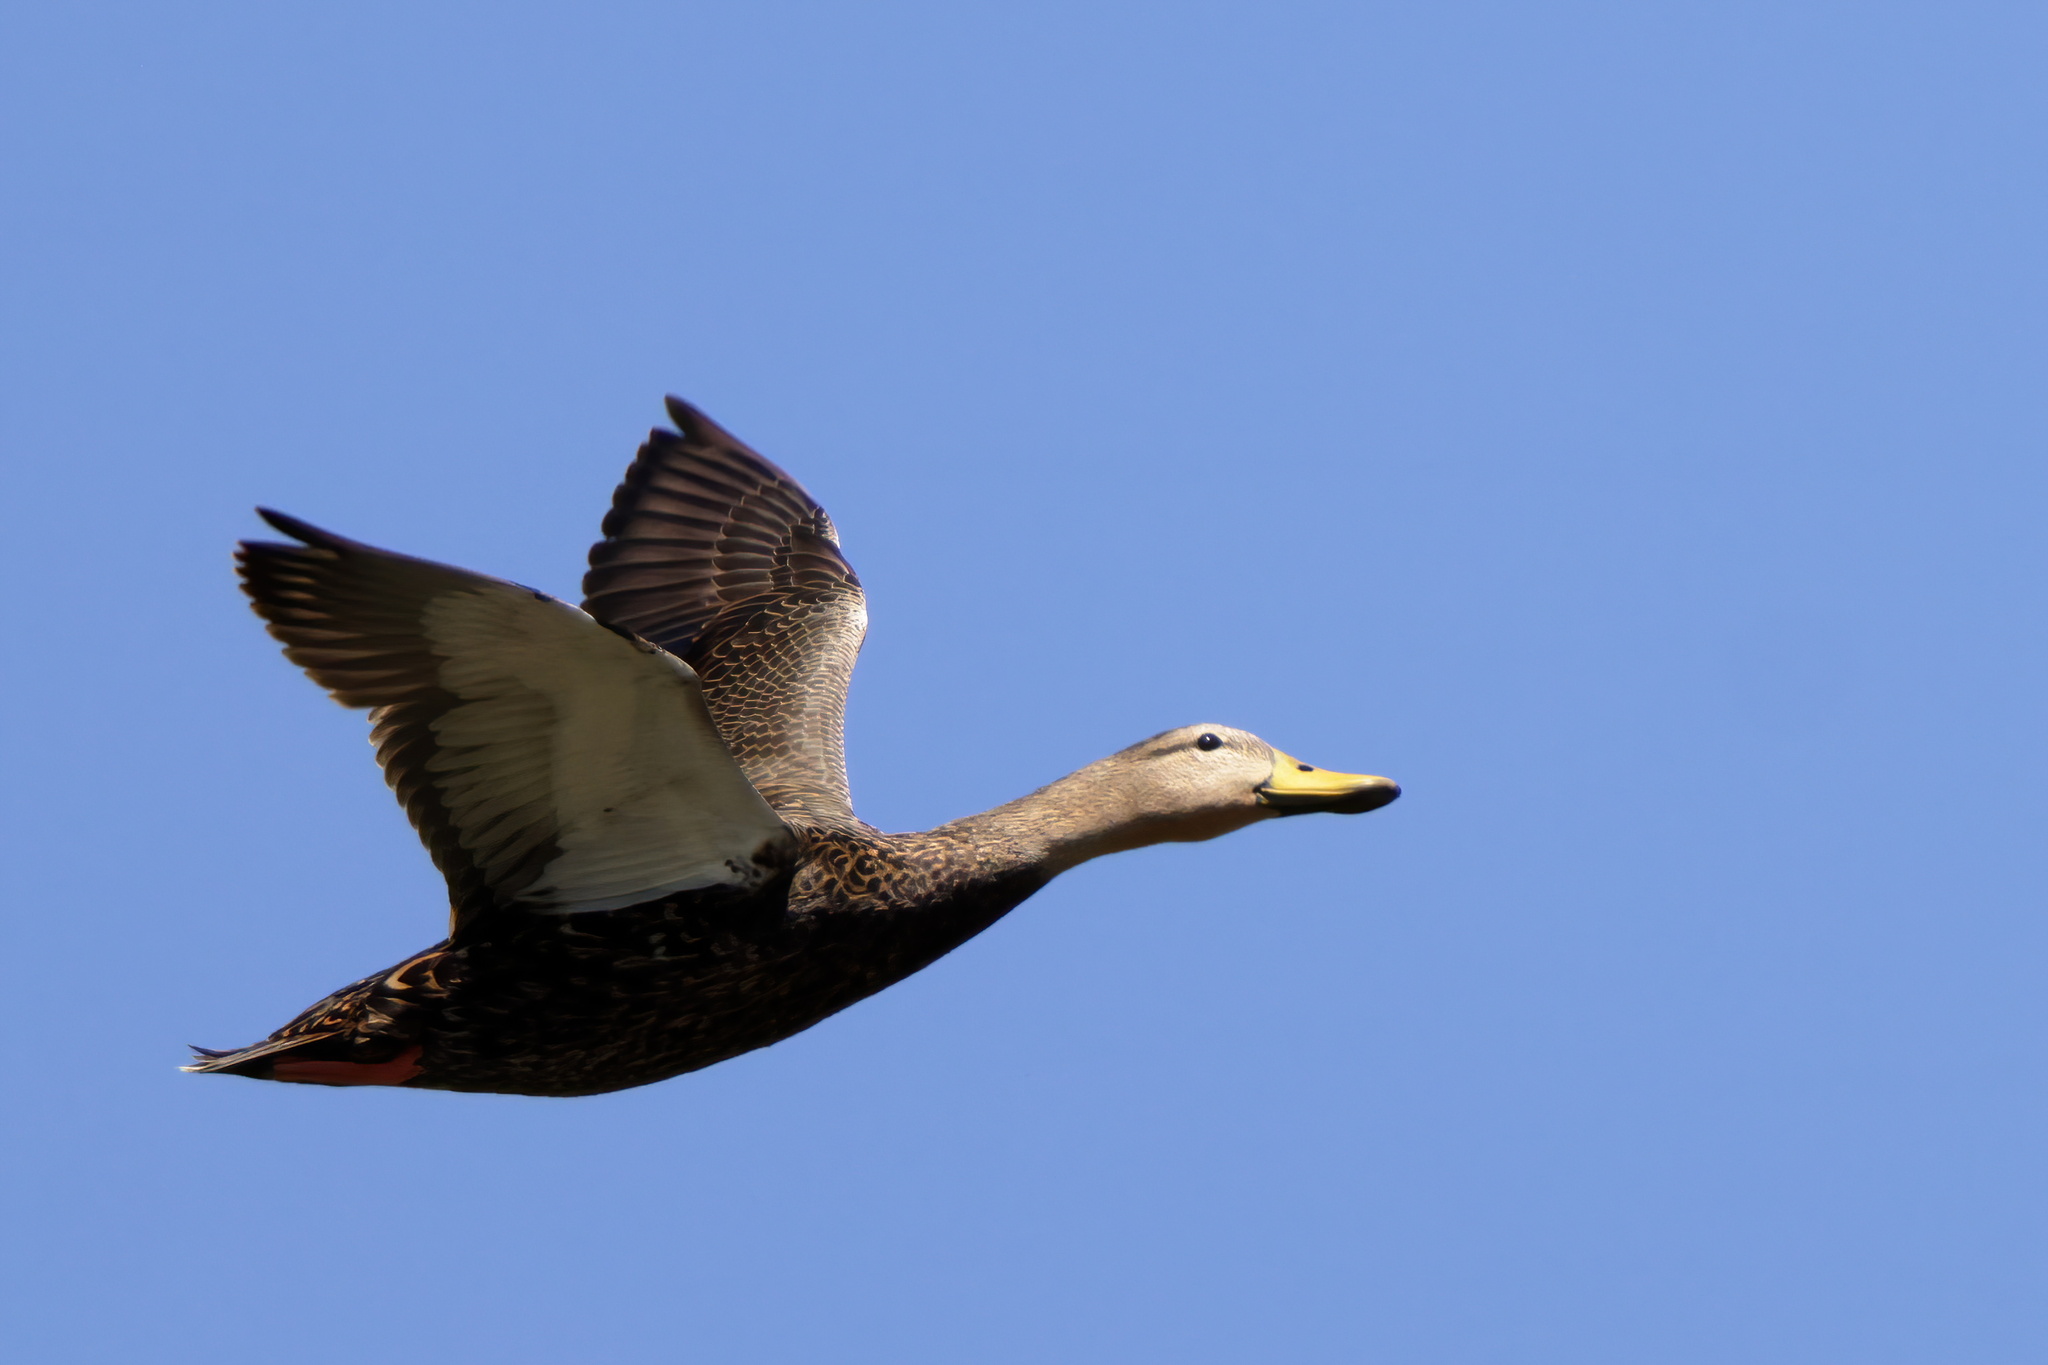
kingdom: Animalia
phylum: Chordata
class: Aves
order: Anseriformes
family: Anatidae
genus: Anas
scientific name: Anas fulvigula
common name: Mottled duck
